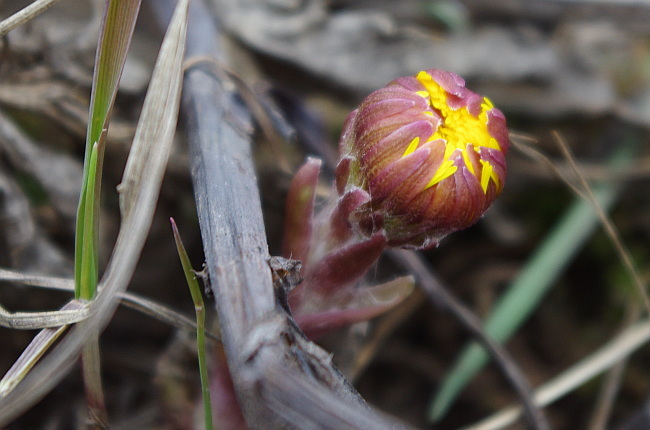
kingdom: Plantae
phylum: Tracheophyta
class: Magnoliopsida
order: Asterales
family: Asteraceae
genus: Tussilago
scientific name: Tussilago farfara
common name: Coltsfoot
